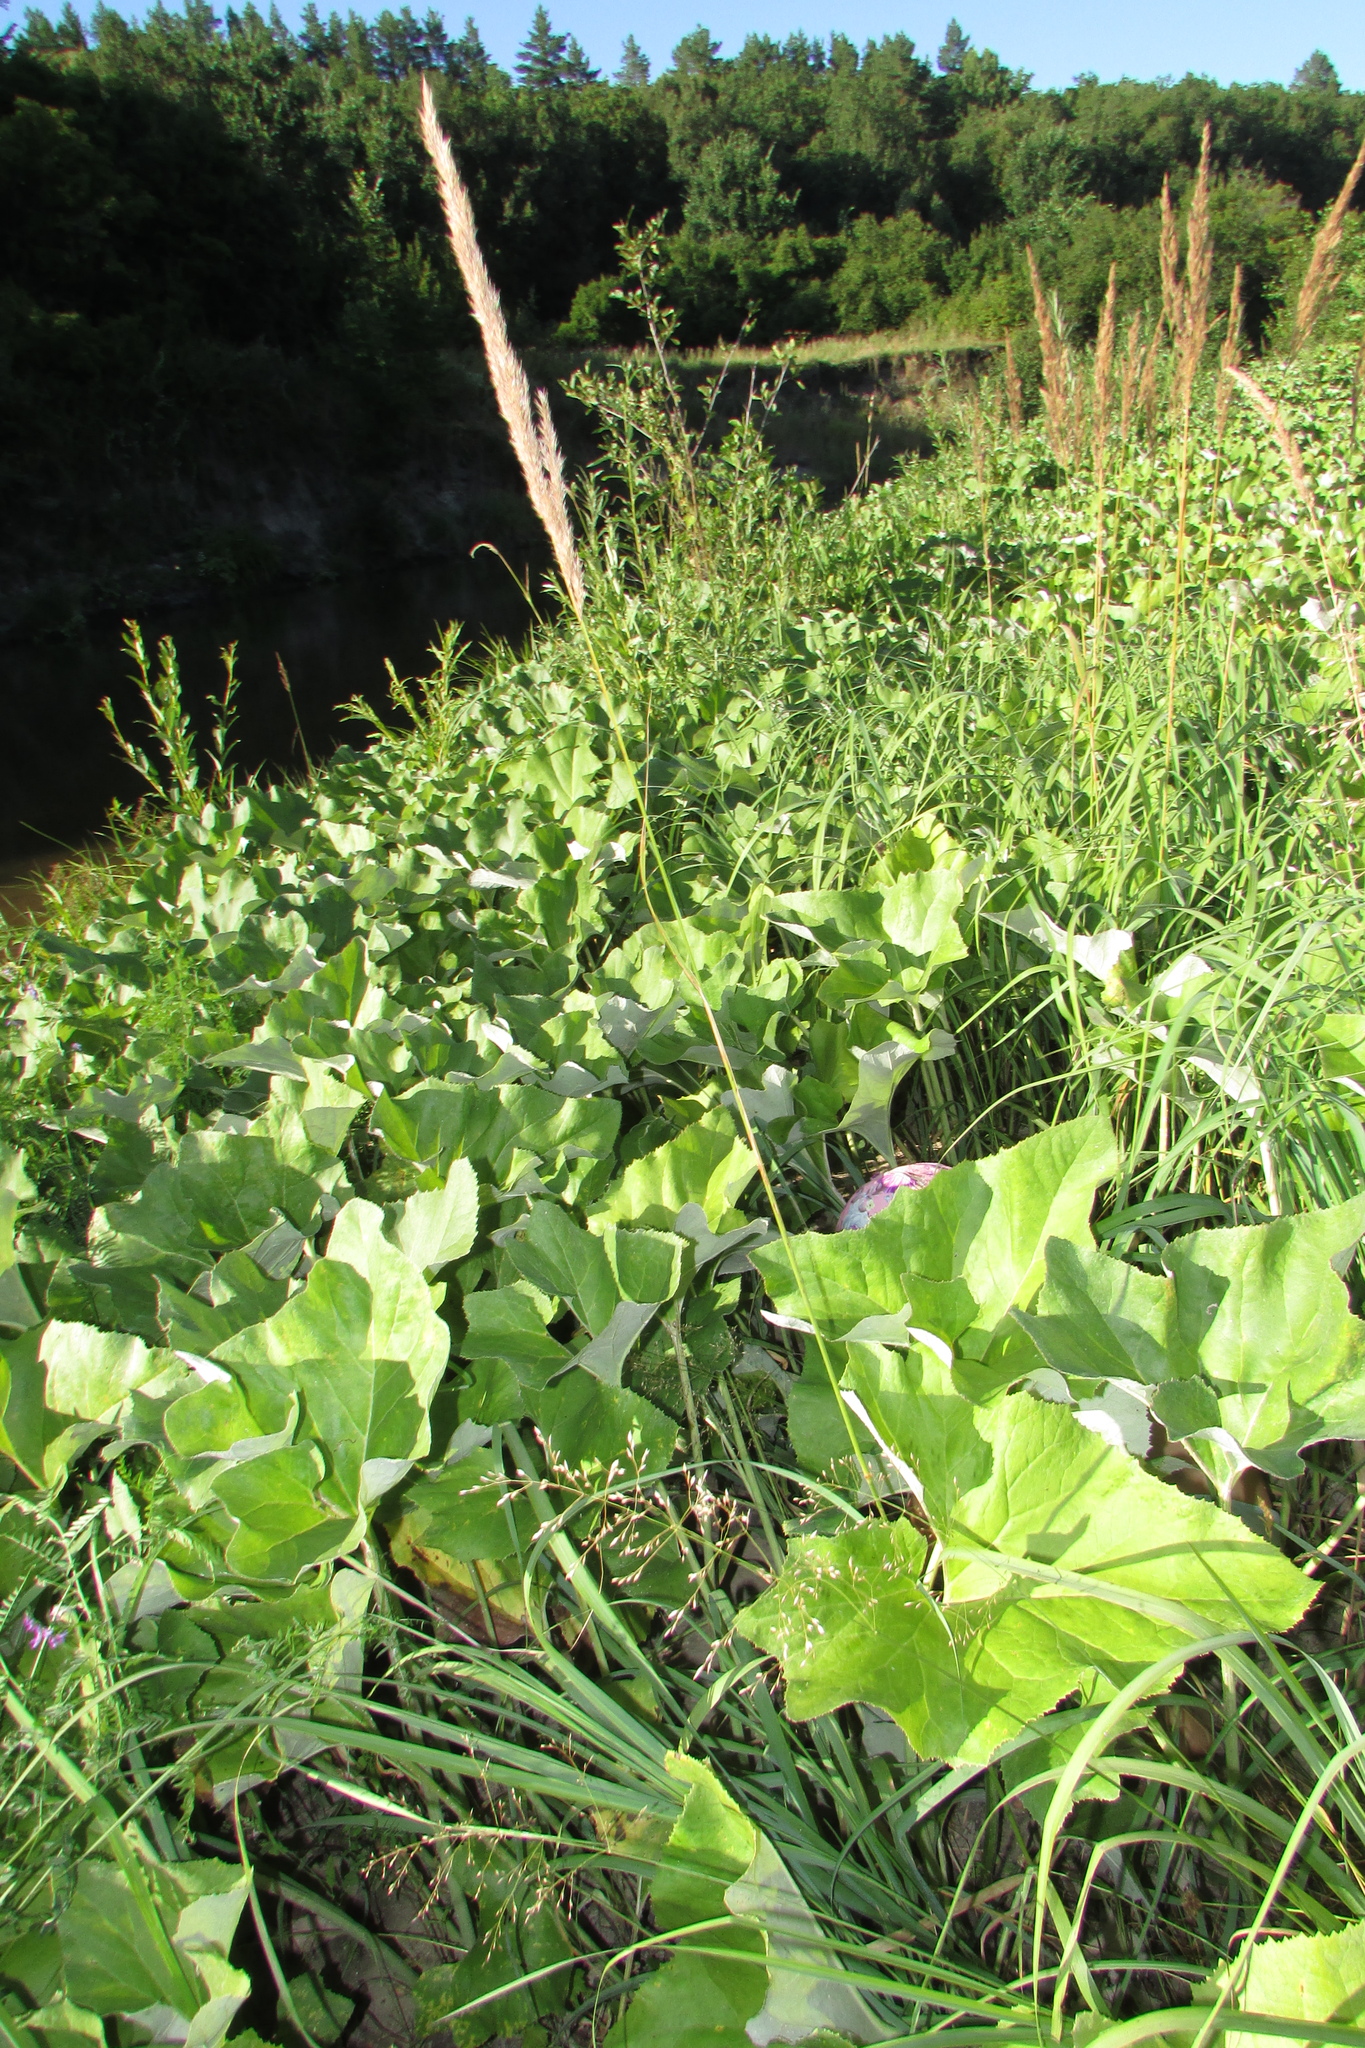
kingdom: Plantae
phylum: Tracheophyta
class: Magnoliopsida
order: Asterales
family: Asteraceae
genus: Petasites
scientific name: Petasites spurius
